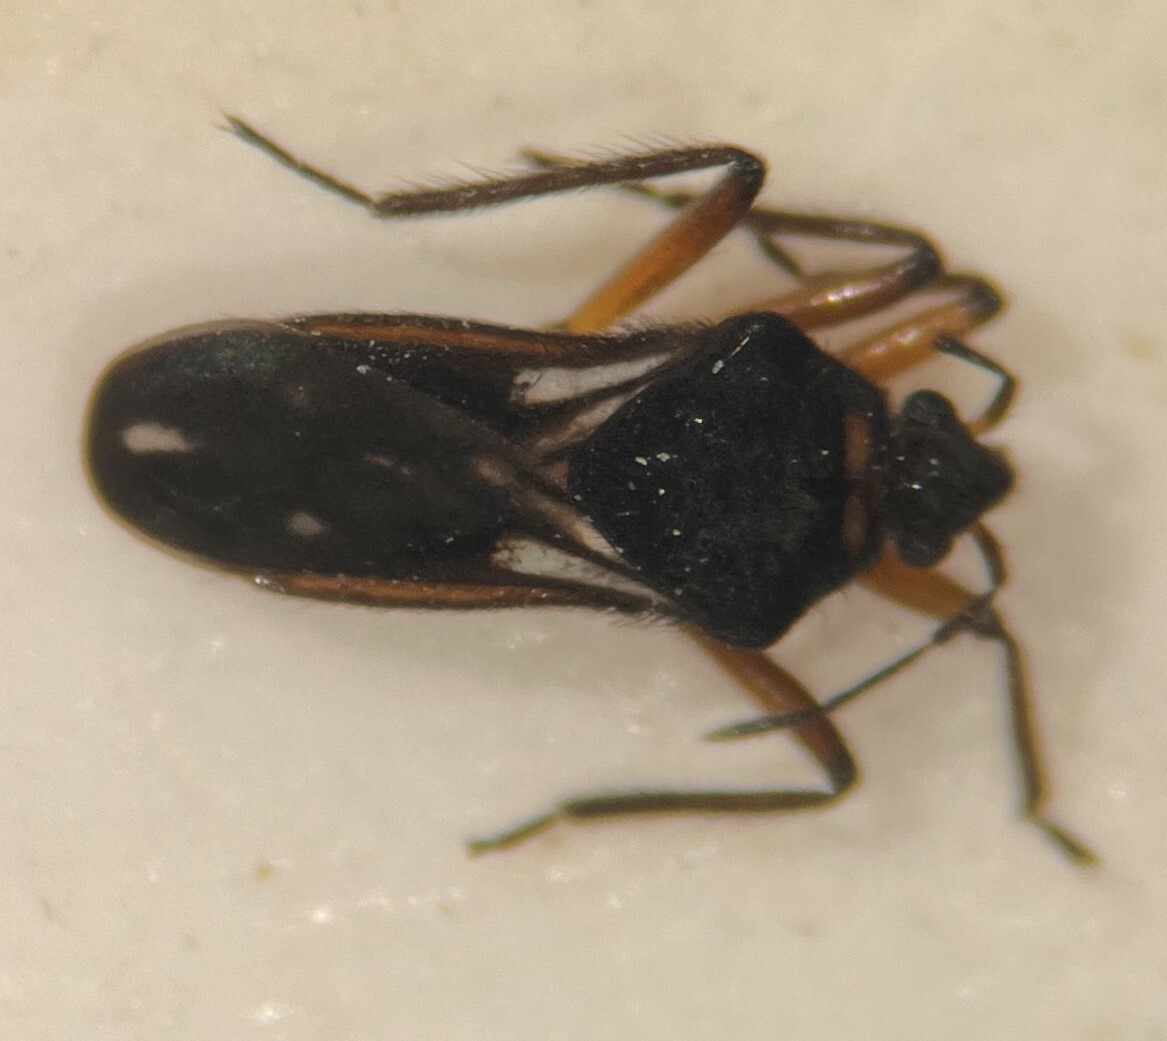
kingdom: Animalia
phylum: Arthropoda
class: Insecta
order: Hemiptera
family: Veliidae
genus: Microvelia
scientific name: Microvelia signata
